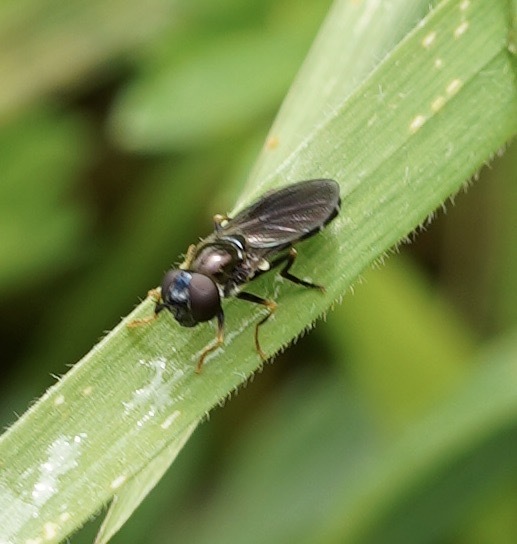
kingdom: Animalia
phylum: Arthropoda
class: Insecta
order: Diptera
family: Syrphidae
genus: Platycheirus
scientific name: Platycheirus albimanus
